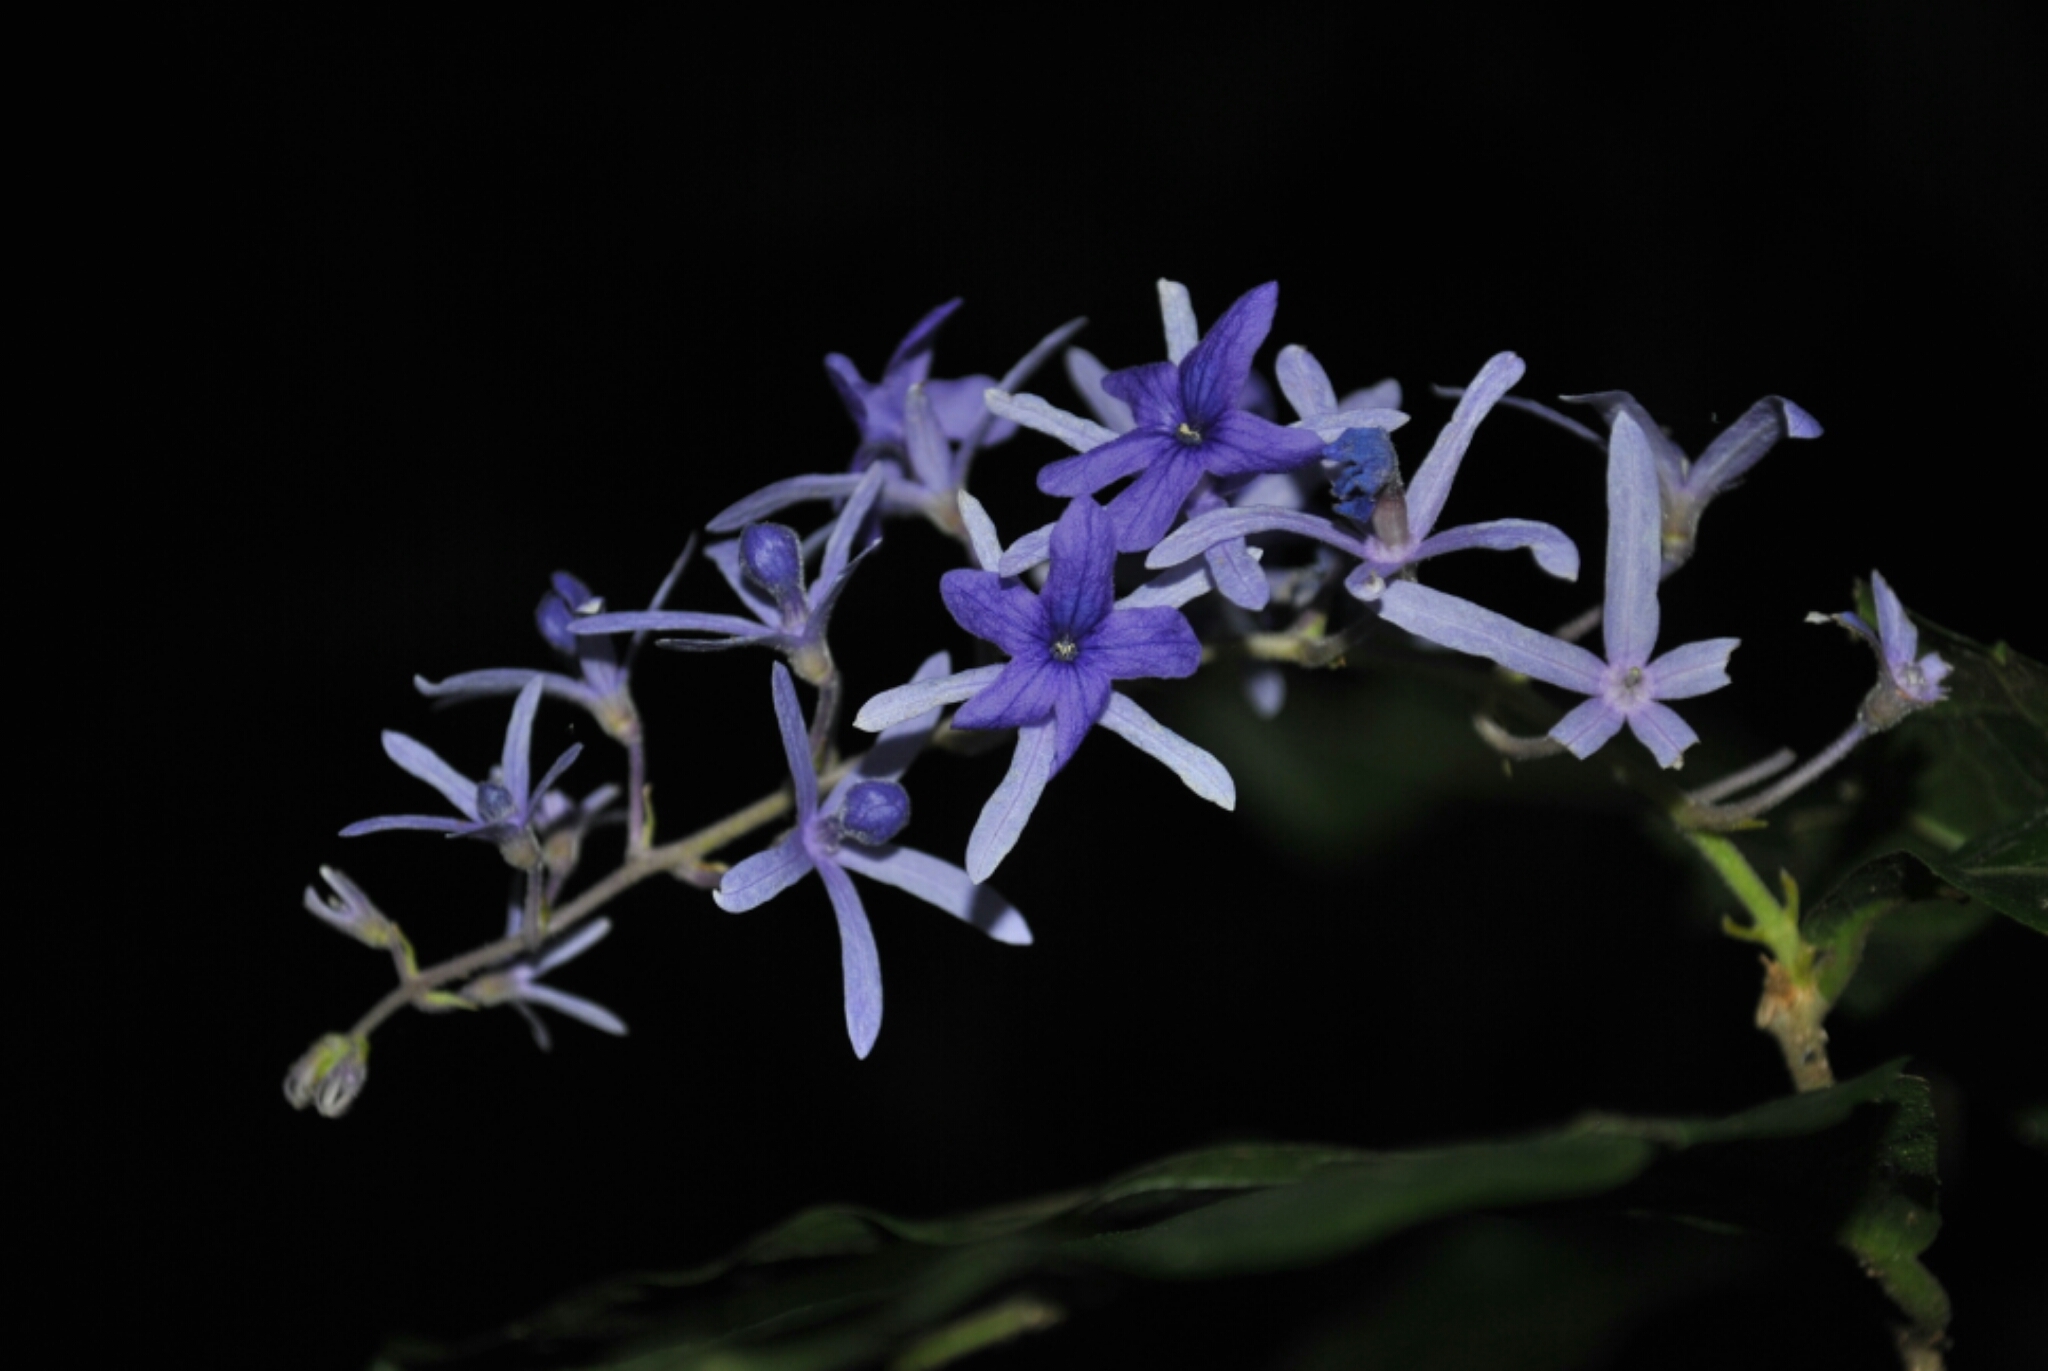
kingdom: Plantae
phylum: Tracheophyta
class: Magnoliopsida
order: Lamiales
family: Verbenaceae
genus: Petrea
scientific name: Petrea volubilis
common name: Queen's-wreath
